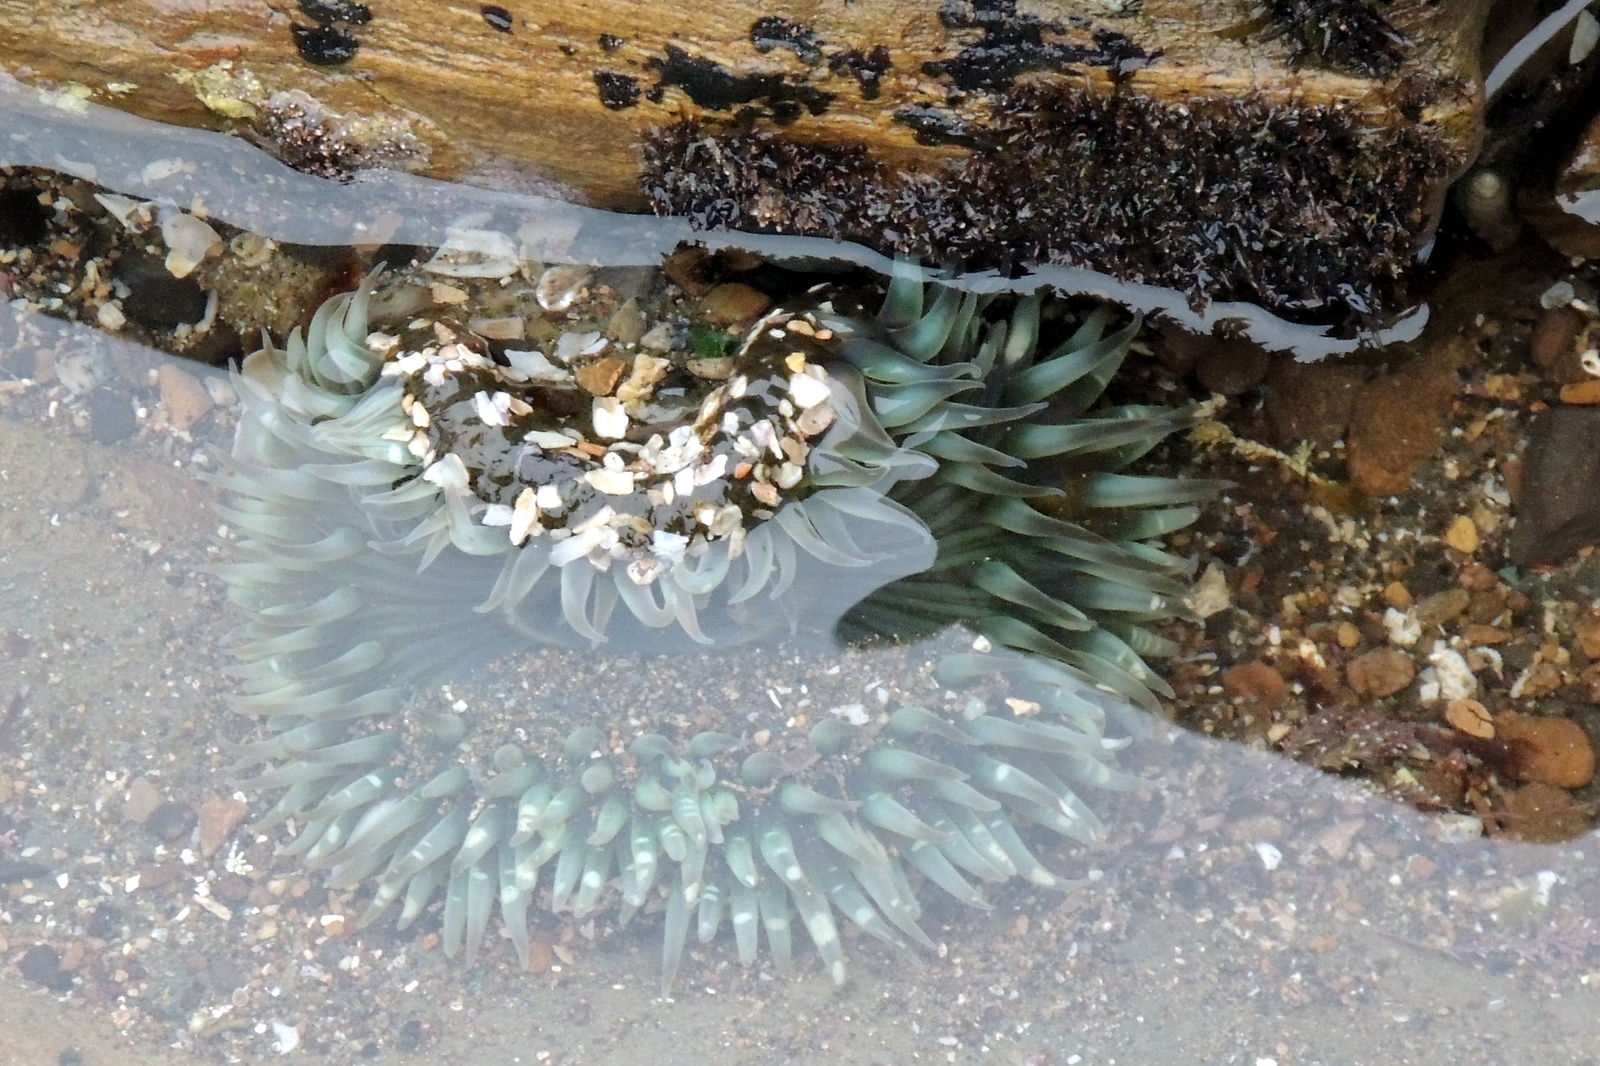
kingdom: Animalia
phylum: Cnidaria
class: Anthozoa
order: Actiniaria
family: Actiniidae
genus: Anthopleura
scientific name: Anthopleura sola
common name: Sun anemone
